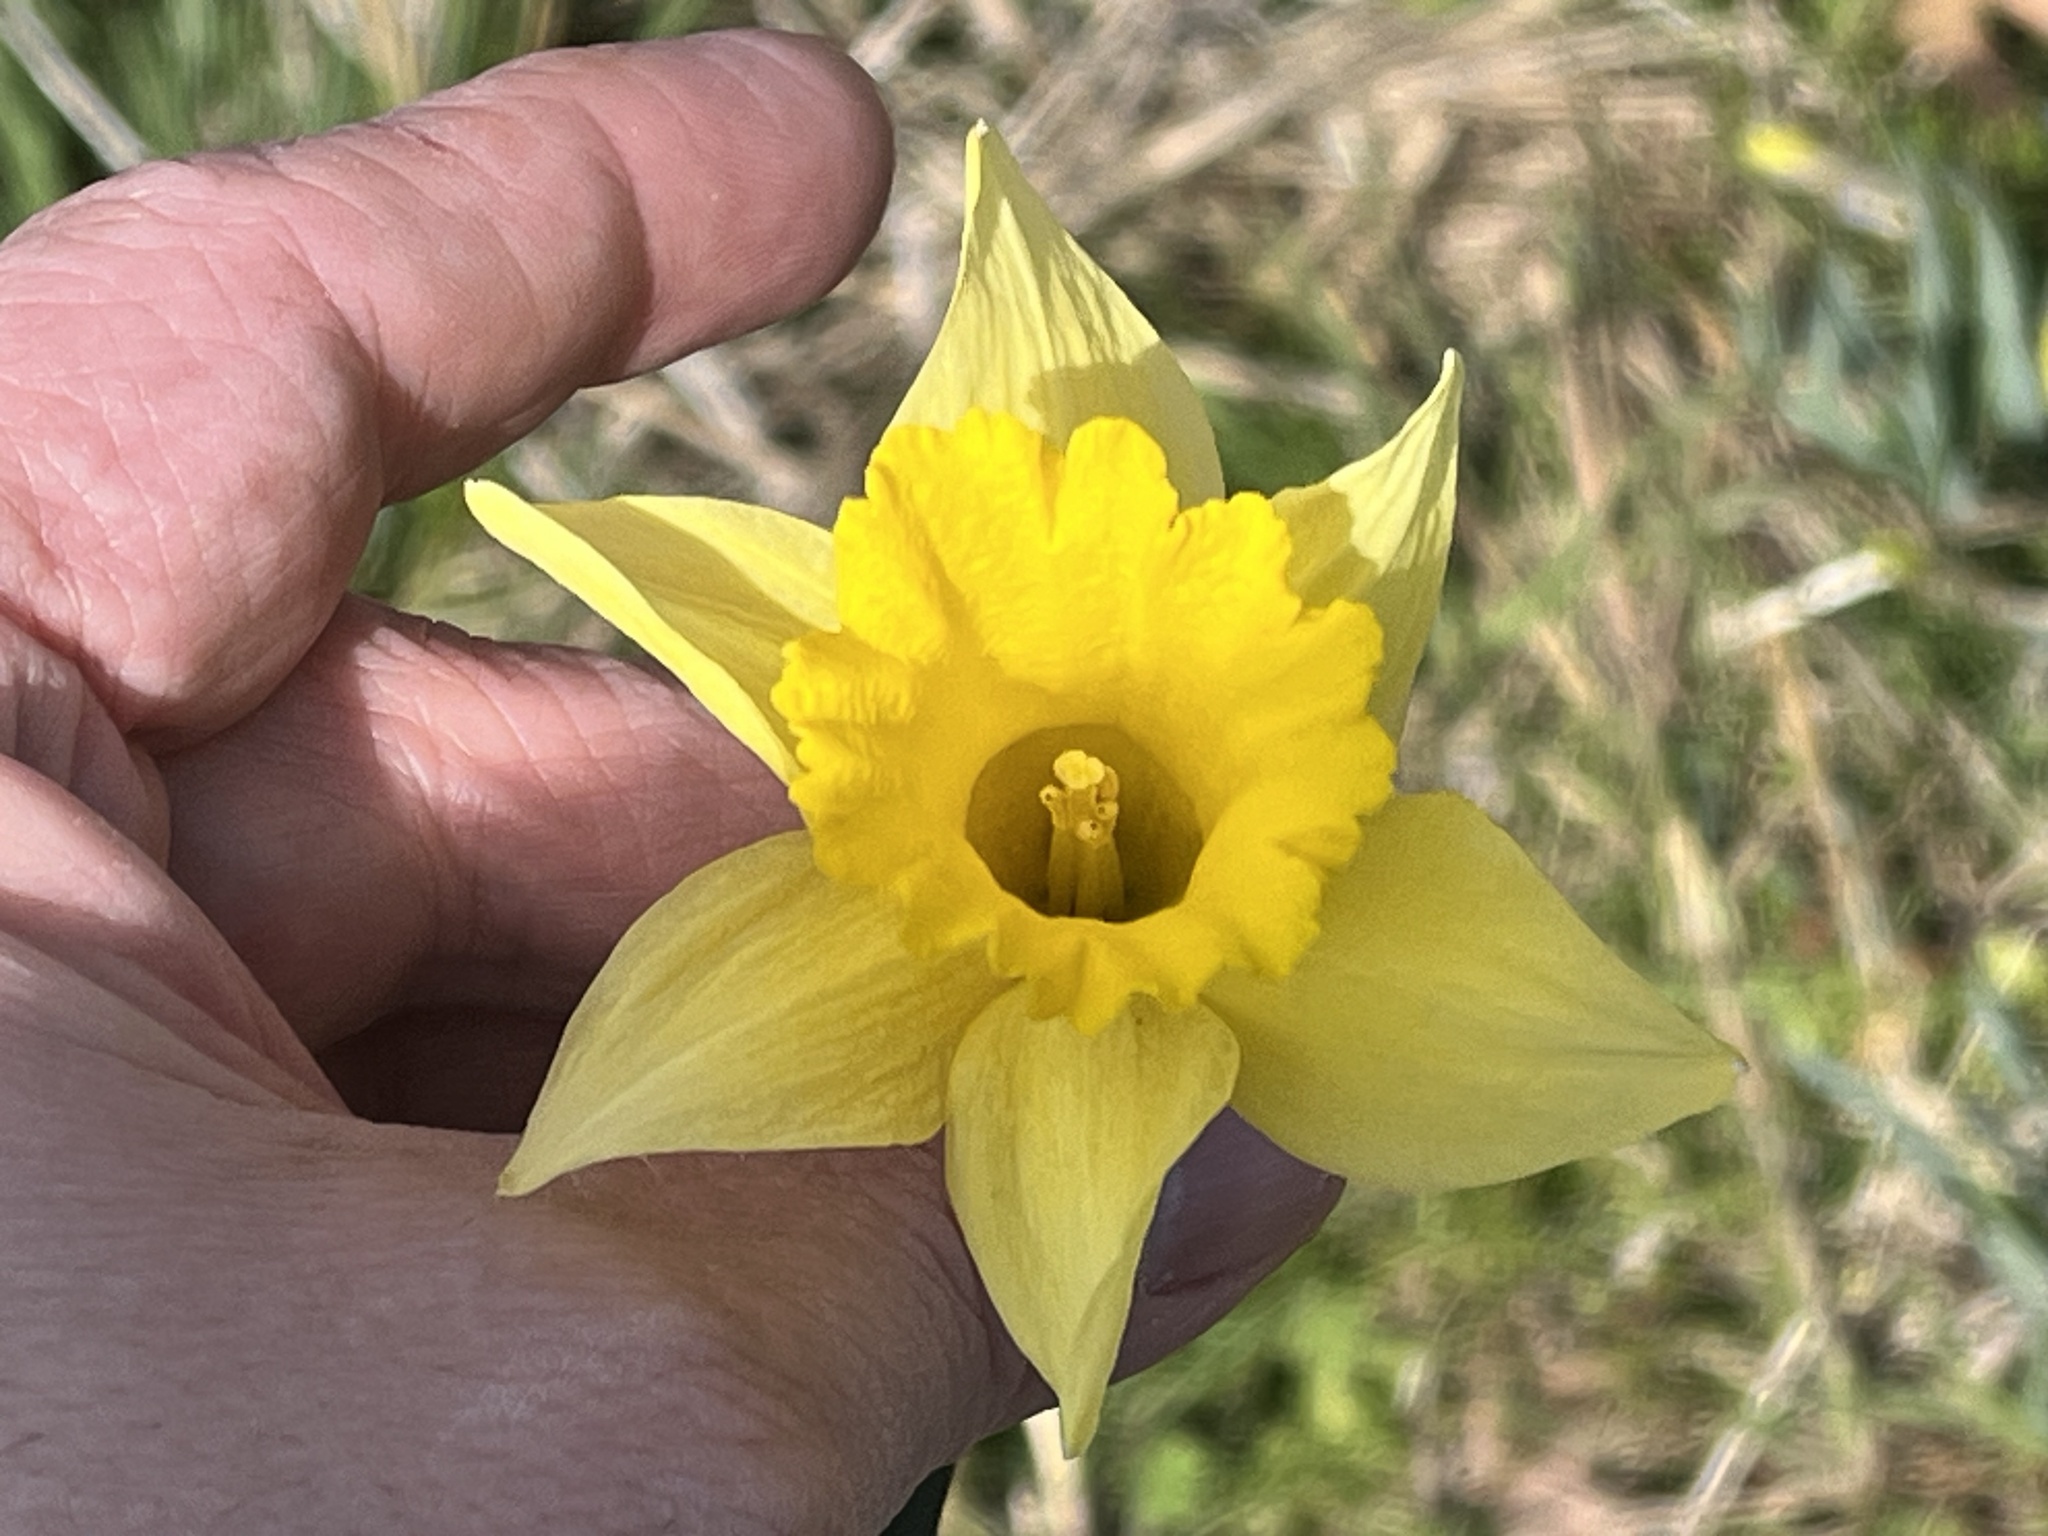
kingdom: Plantae
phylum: Tracheophyta
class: Liliopsida
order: Asparagales
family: Amaryllidaceae
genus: Narcissus
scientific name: Narcissus pseudonarcissus
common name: Daffodil
